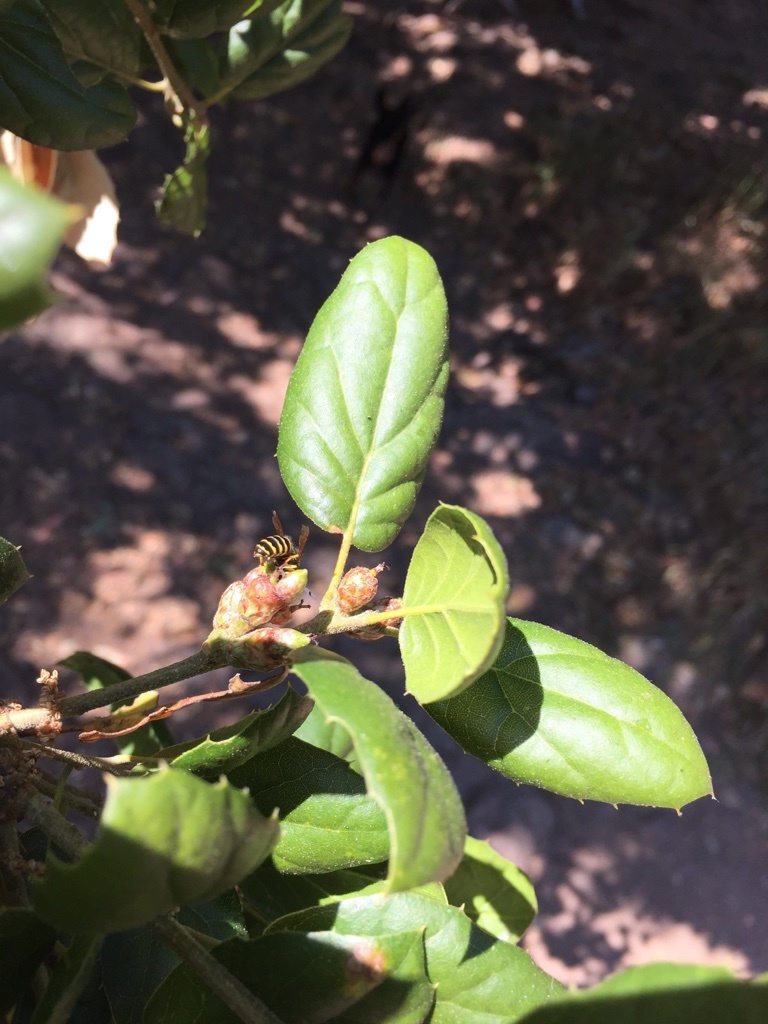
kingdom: Animalia
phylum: Arthropoda
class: Insecta
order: Hymenoptera
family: Vespidae
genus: Vespula
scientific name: Vespula alascensis
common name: Alaska yellowjacket
